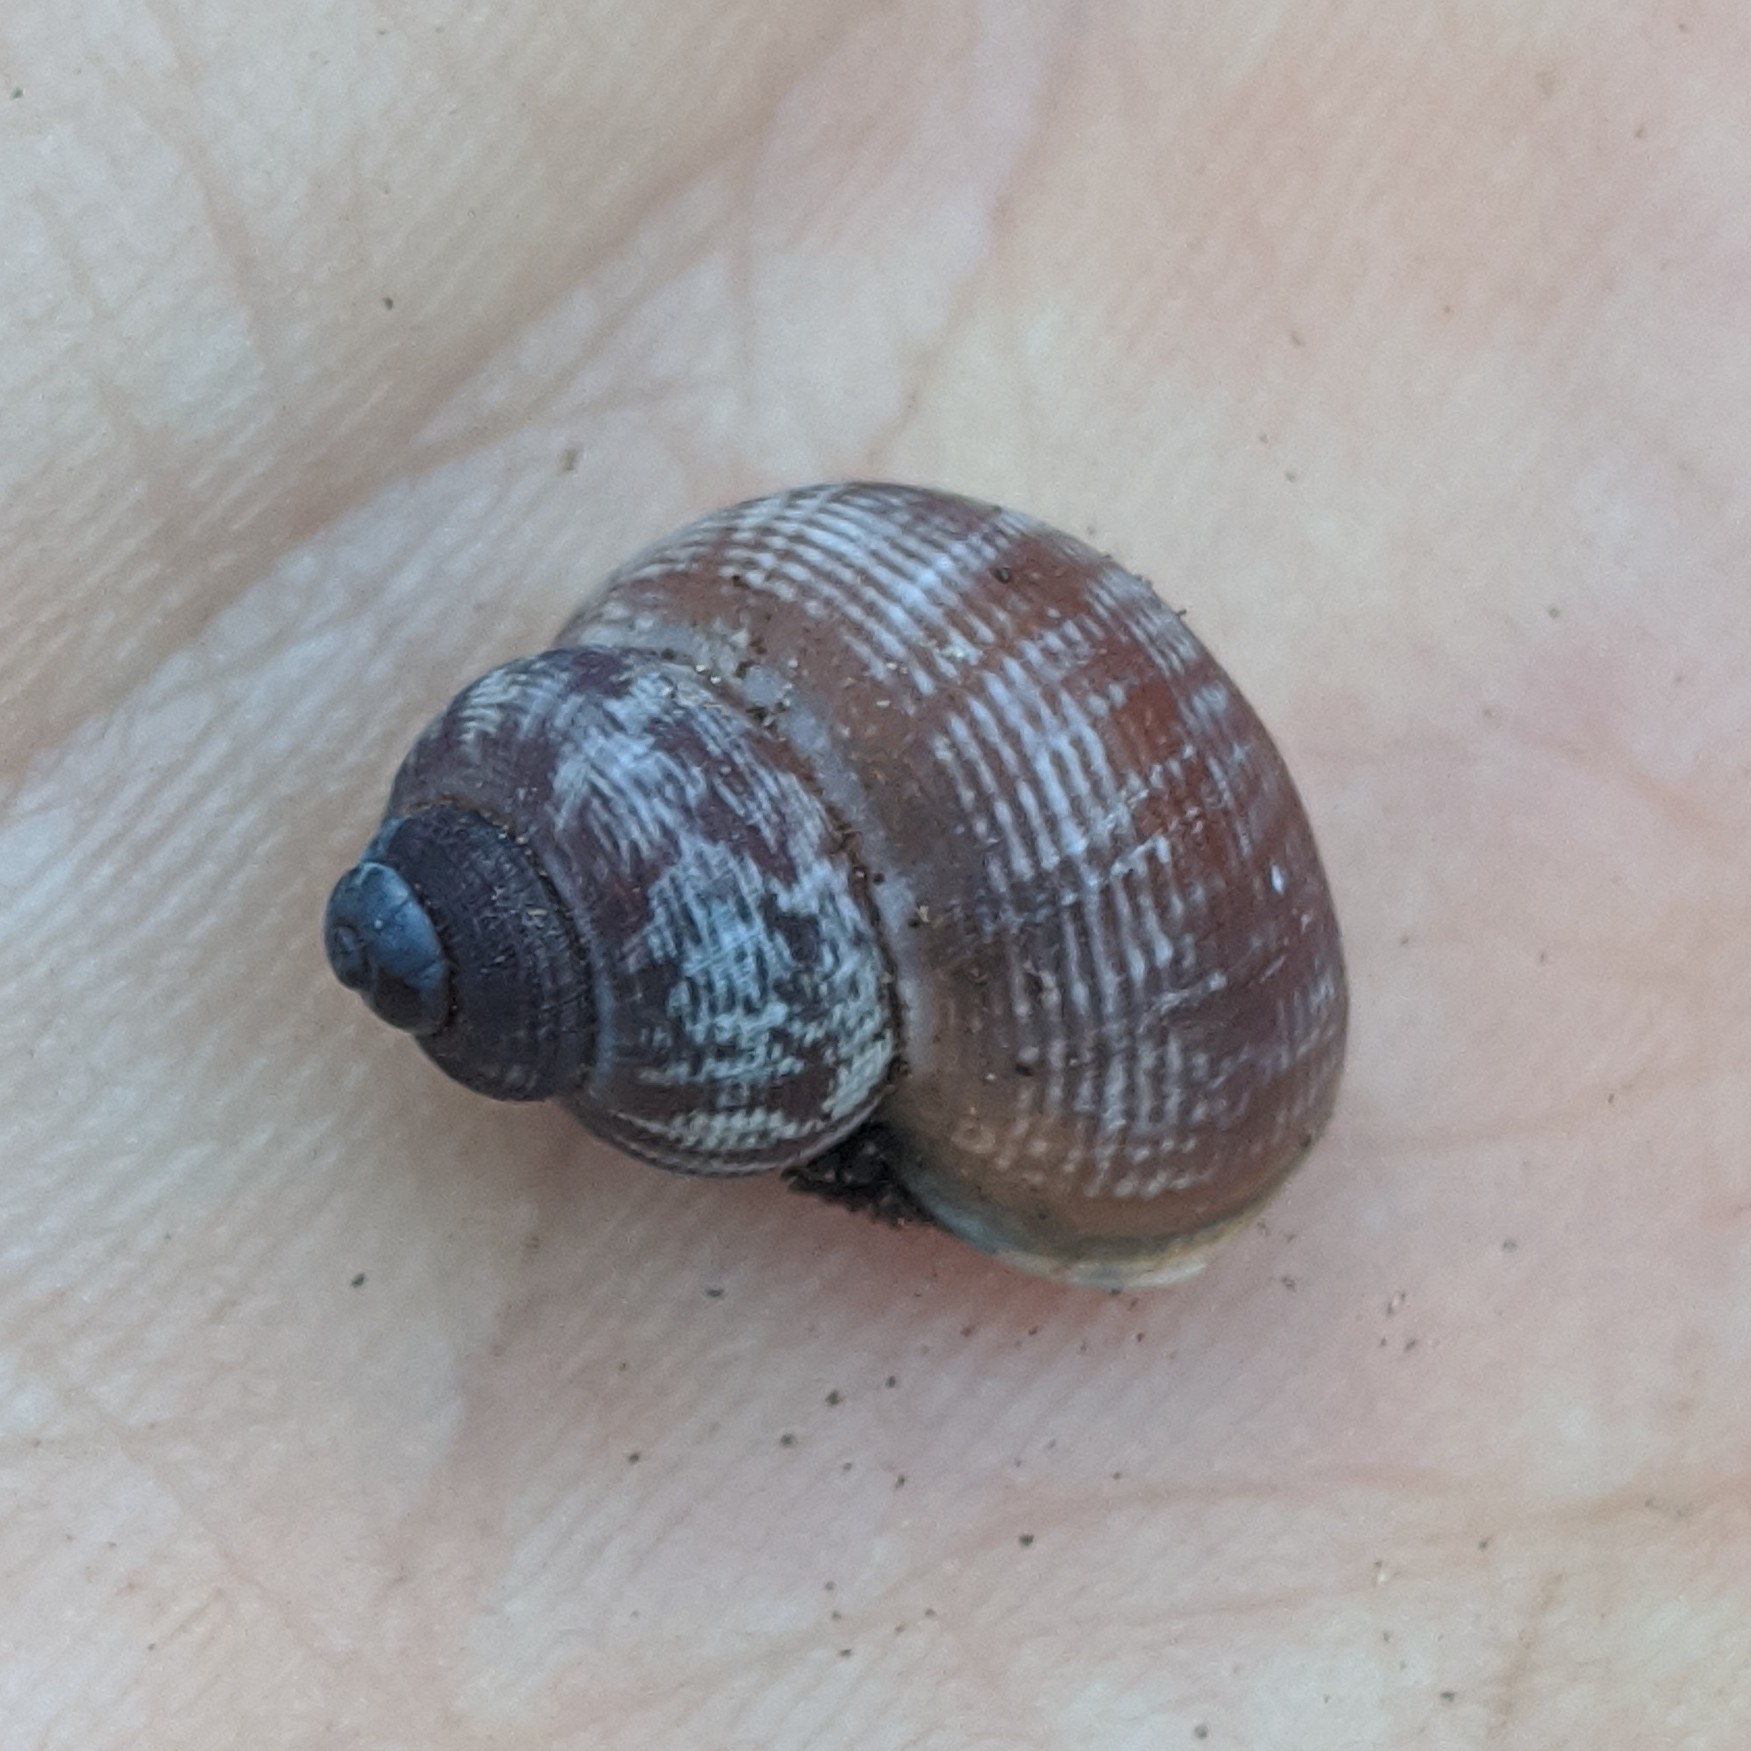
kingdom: Animalia
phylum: Mollusca
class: Gastropoda
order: Littorinimorpha
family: Pomatiidae
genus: Pomatias
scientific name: Pomatias elegans
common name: Red-mouthed snail
